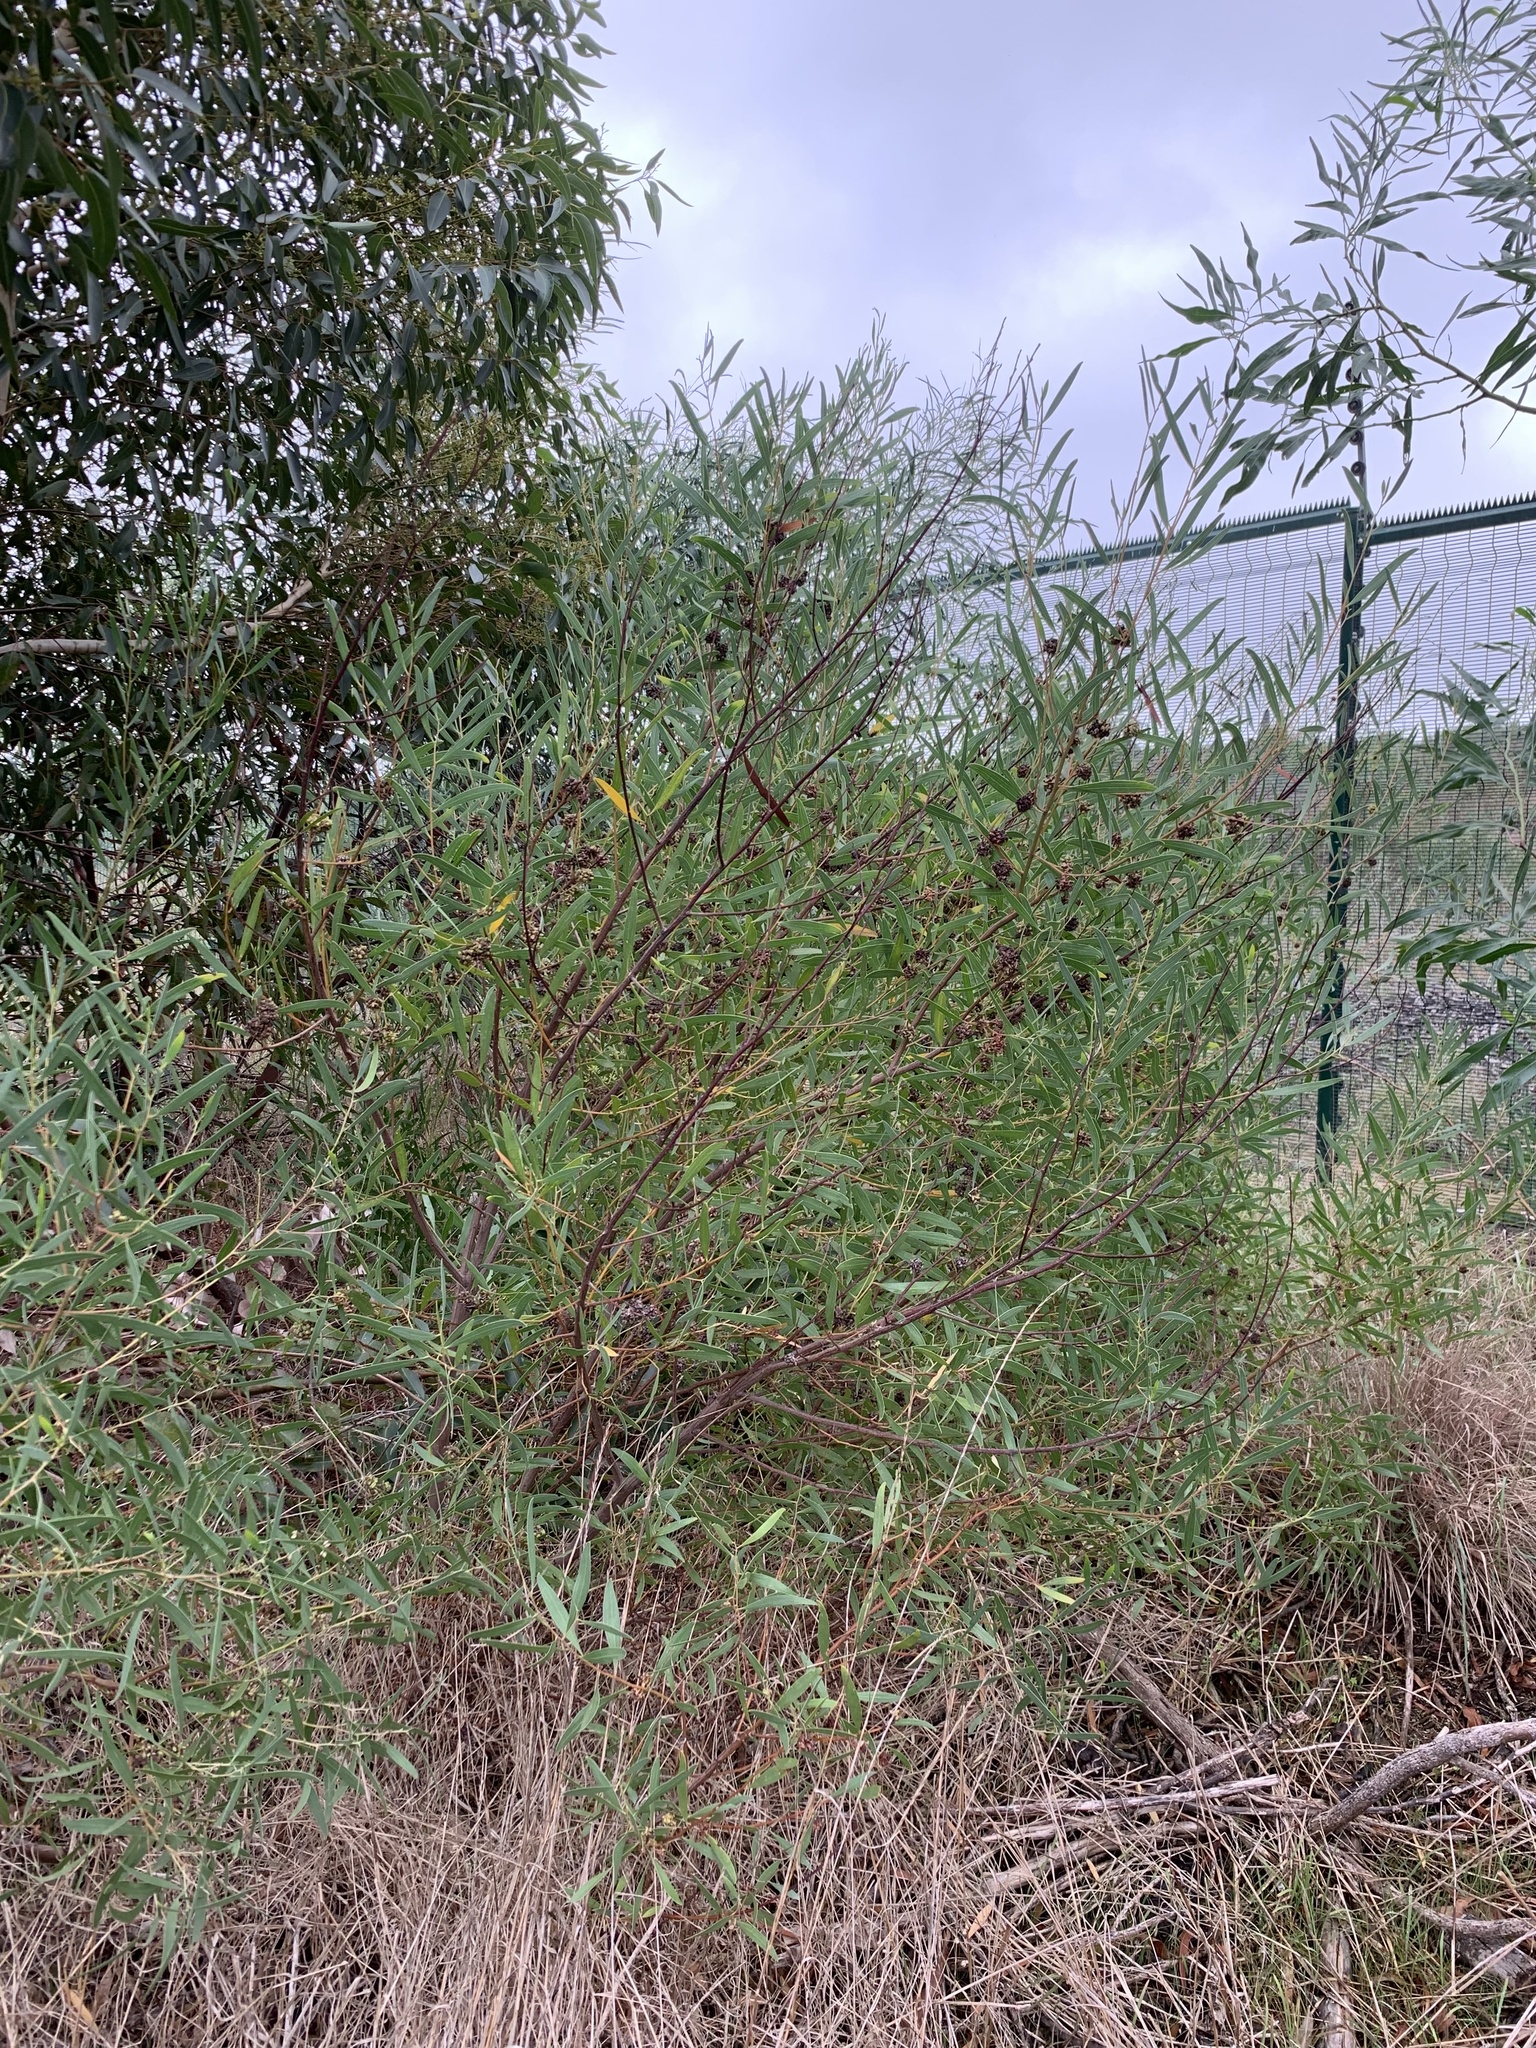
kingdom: Plantae
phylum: Tracheophyta
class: Magnoliopsida
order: Fabales
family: Fabaceae
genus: Acacia
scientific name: Acacia cyclops
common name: Coastal wattle
